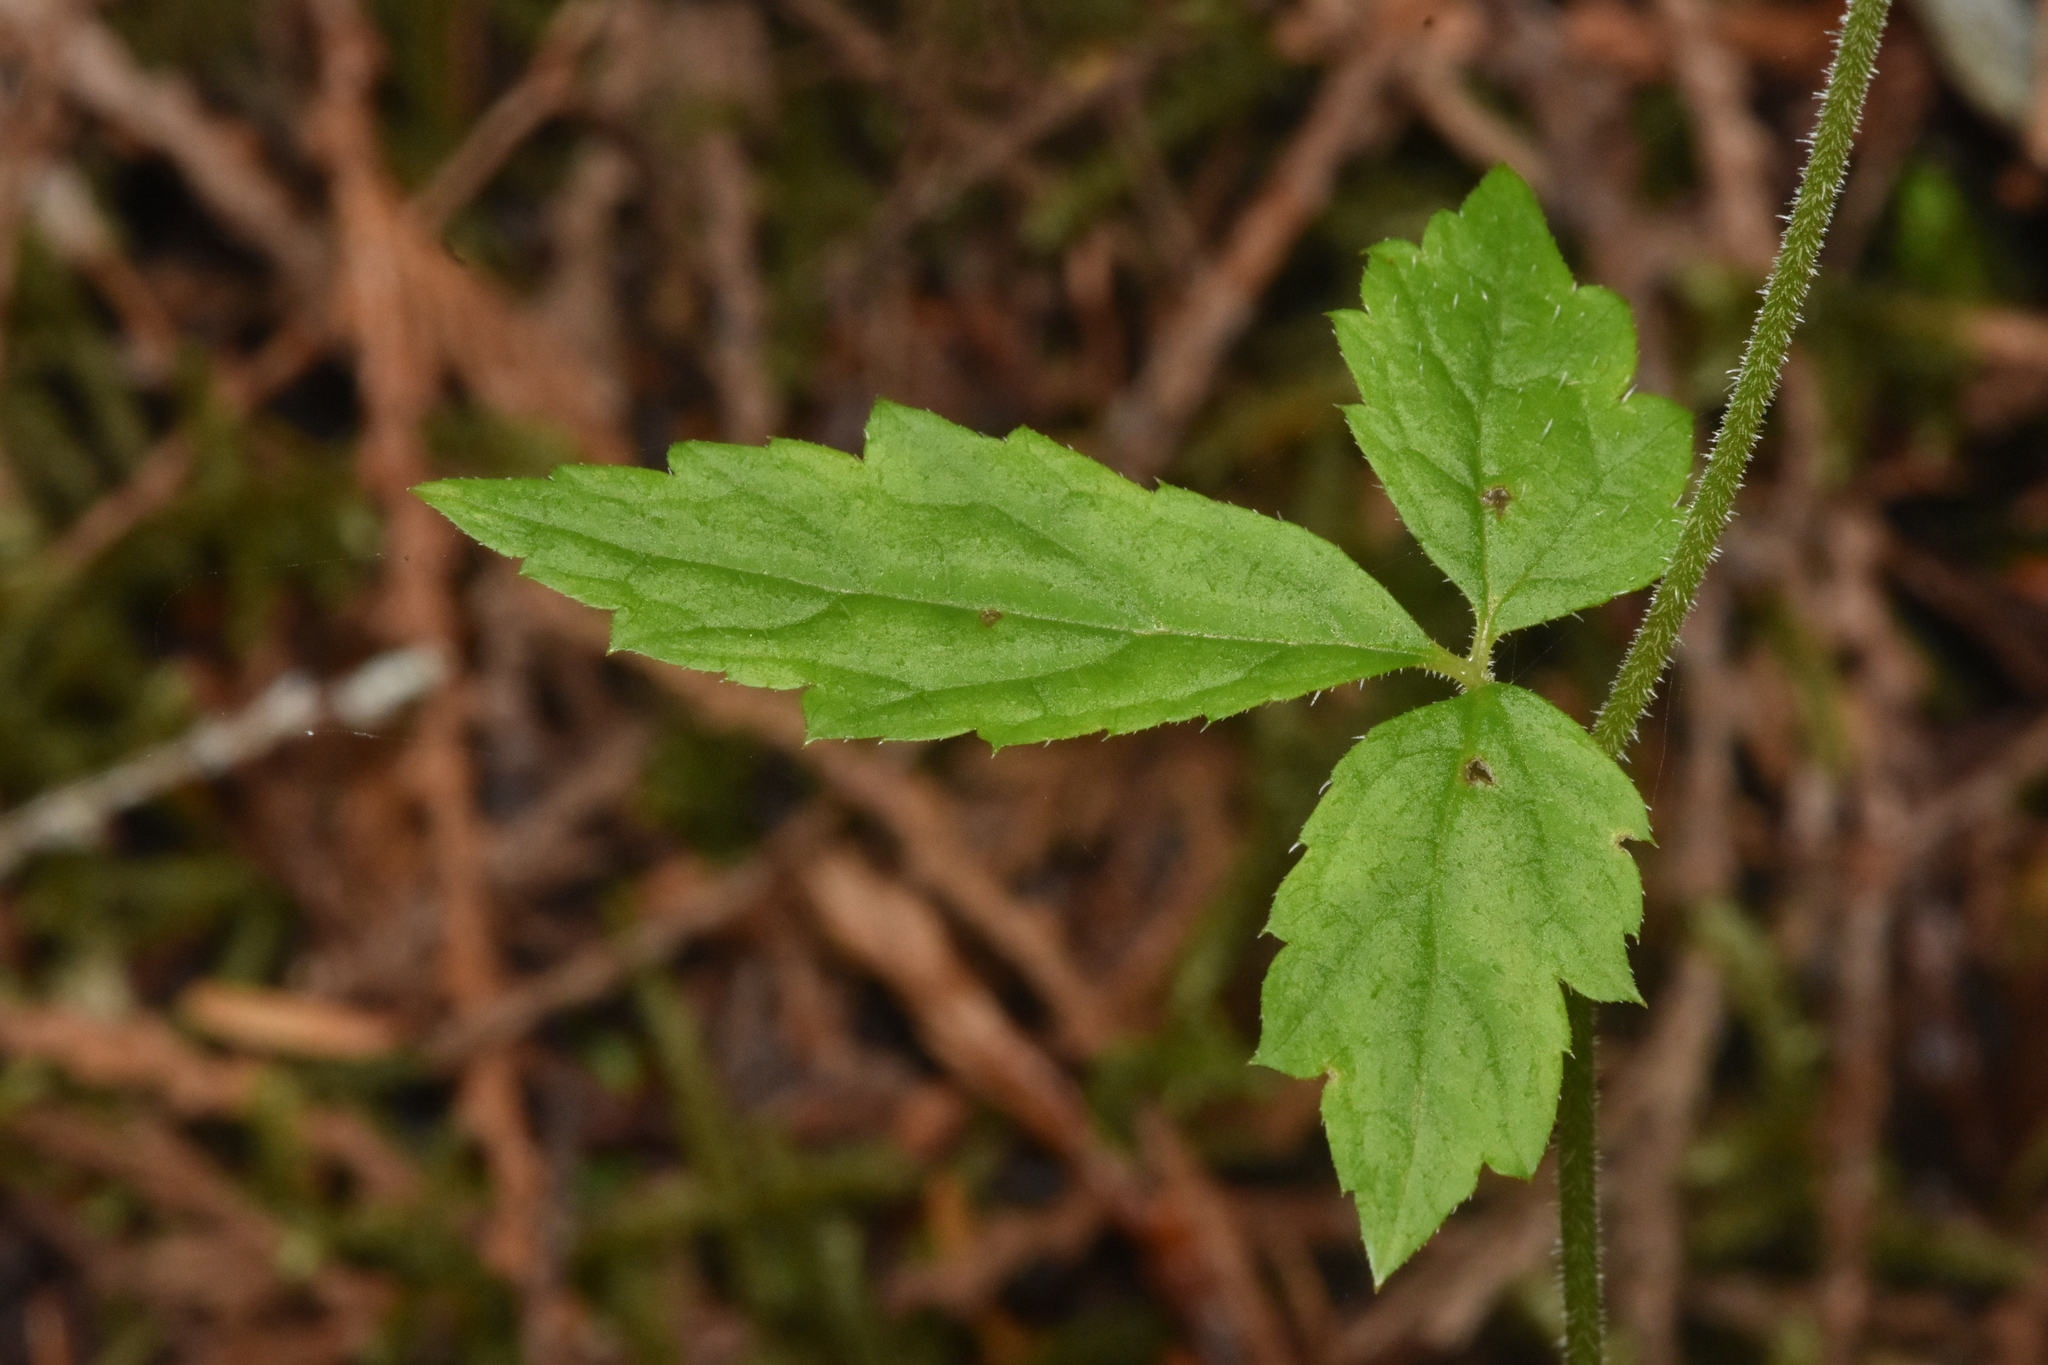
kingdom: Plantae
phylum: Tracheophyta
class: Magnoliopsida
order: Saxifragales
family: Saxifragaceae
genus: Tiarella
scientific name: Tiarella trifoliata
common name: Sugar-scoop
